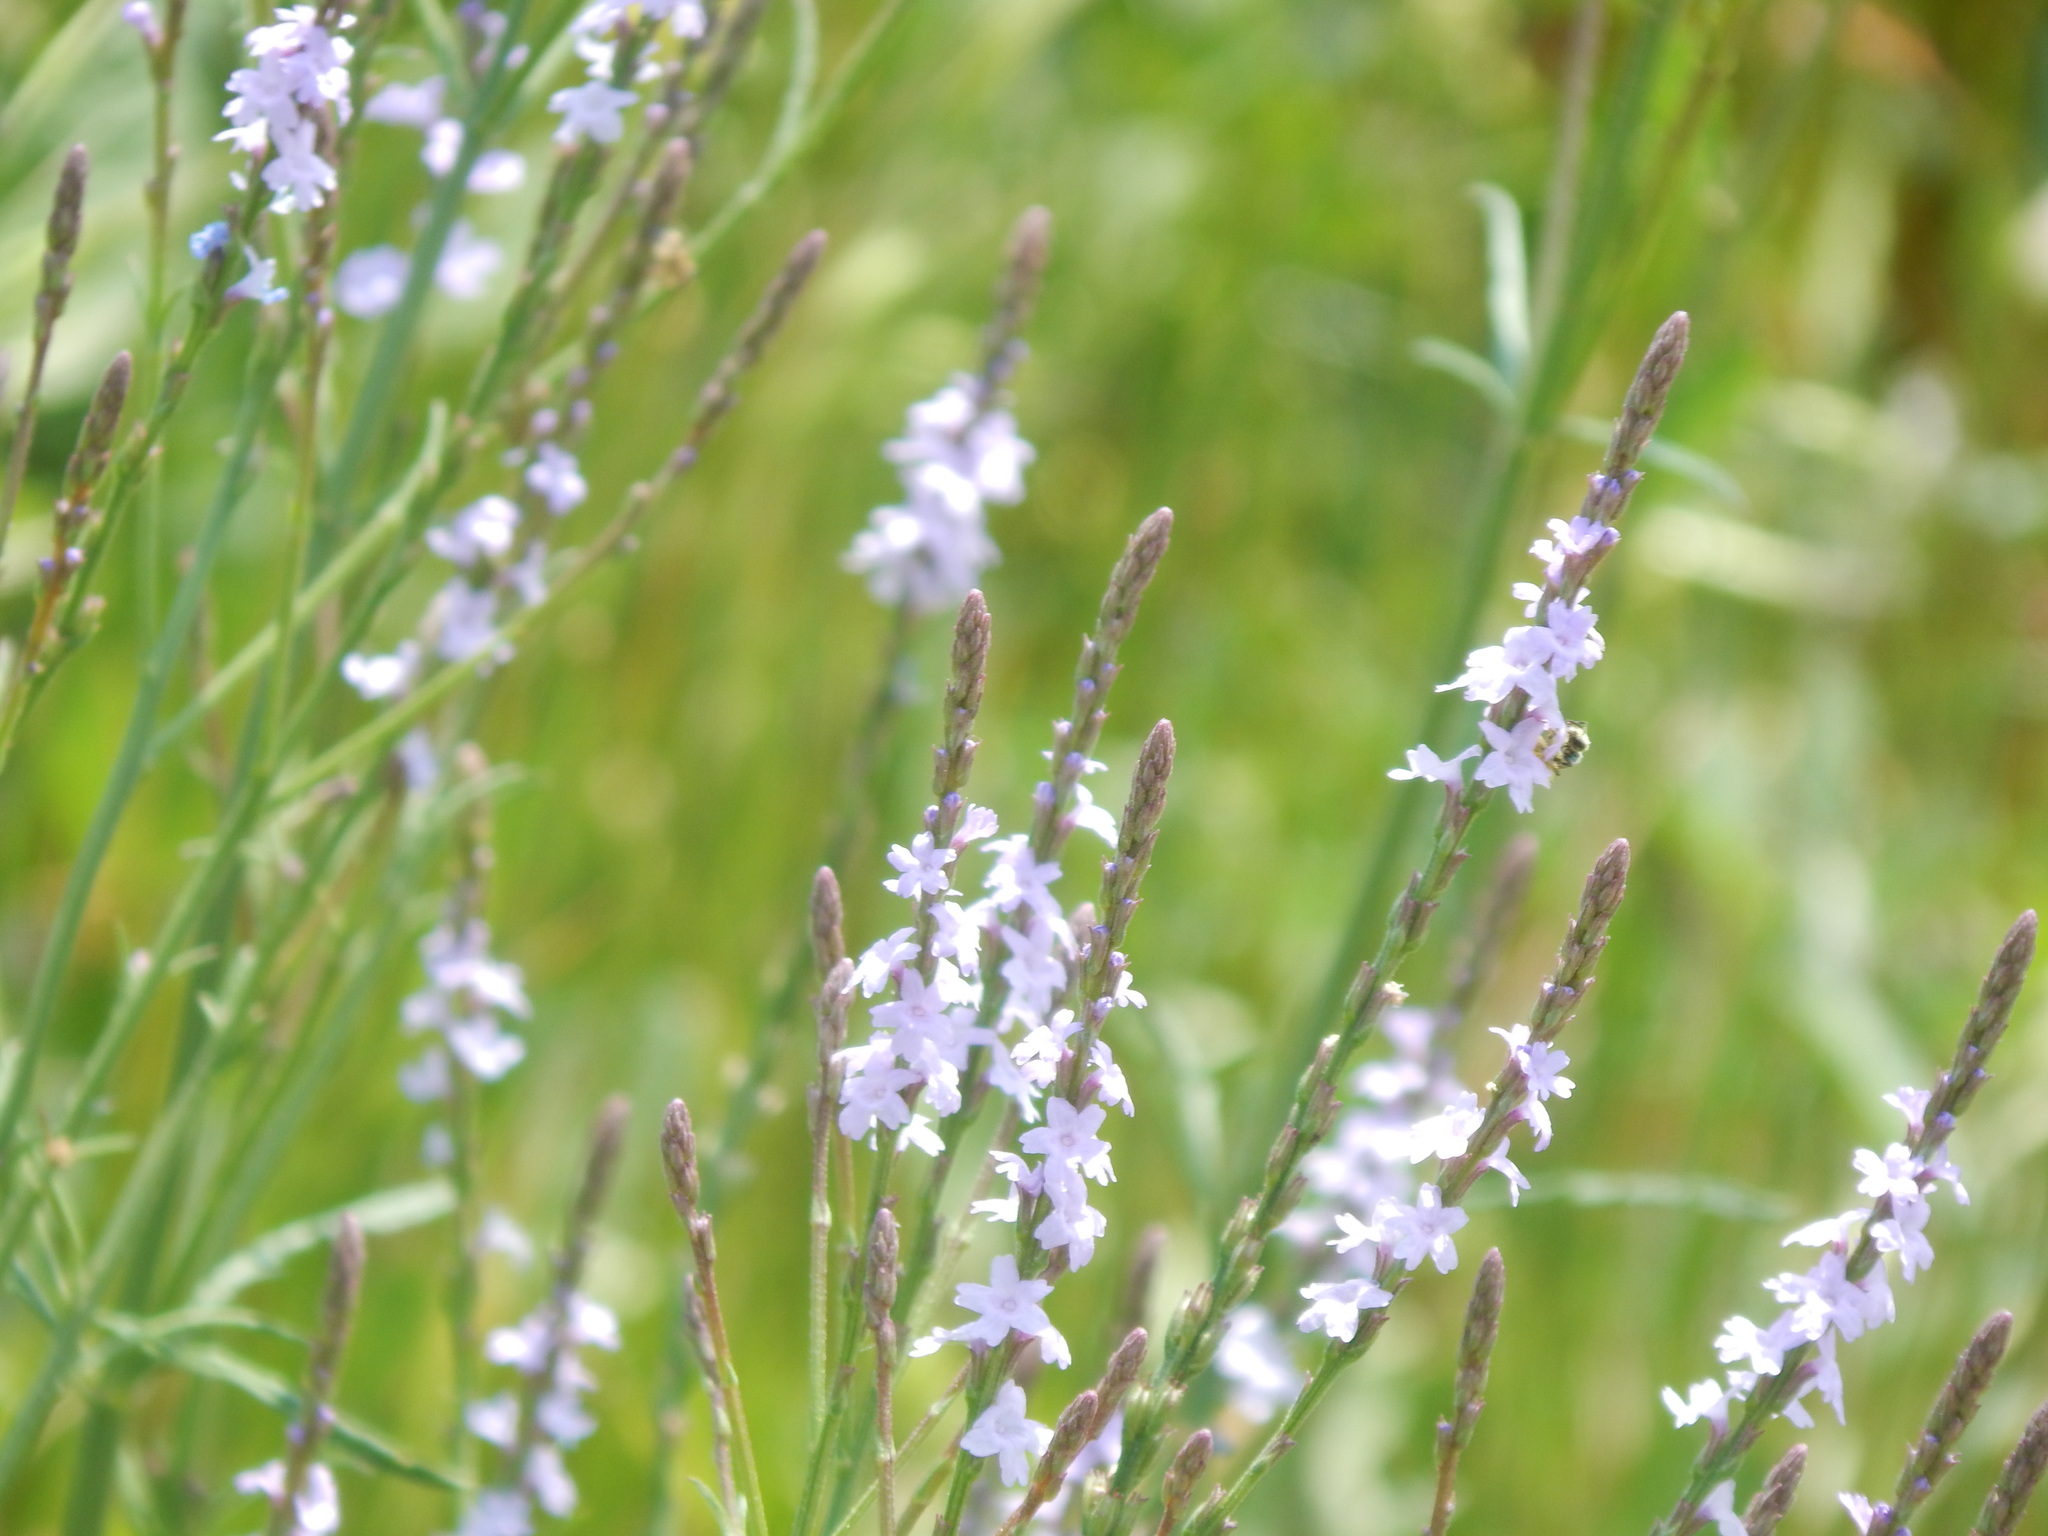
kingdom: Plantae
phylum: Tracheophyta
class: Magnoliopsida
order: Lamiales
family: Verbenaceae
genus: Verbena
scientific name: Verbena halei
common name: Texas vervain
